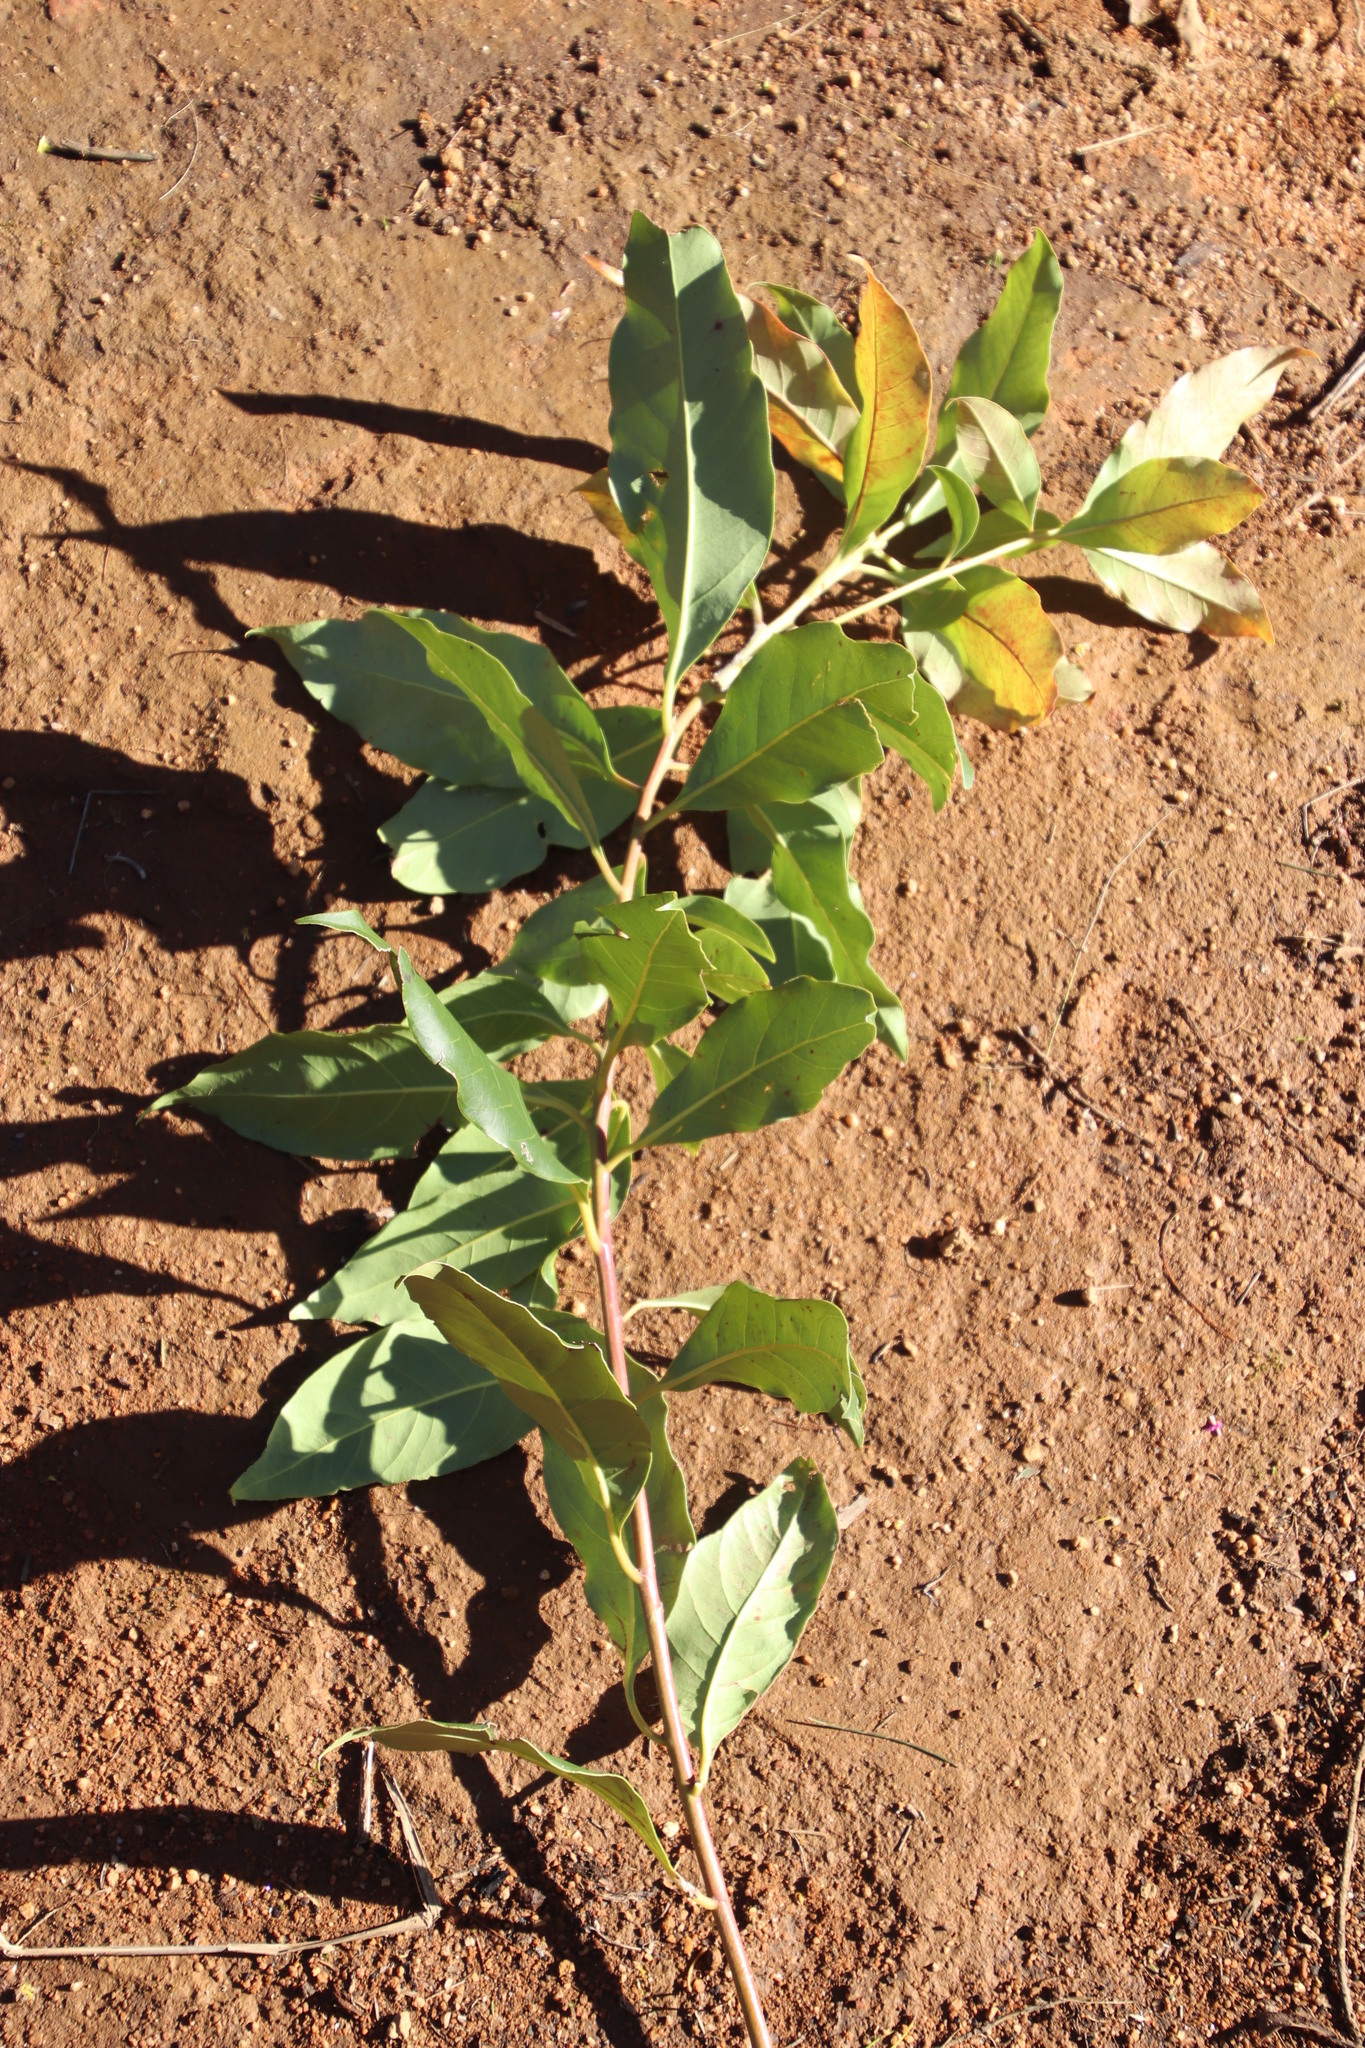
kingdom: Plantae
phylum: Tracheophyta
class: Magnoliopsida
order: Myrtales
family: Myrtaceae
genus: Lophostemon
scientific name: Lophostemon confertus
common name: Brisbane box
